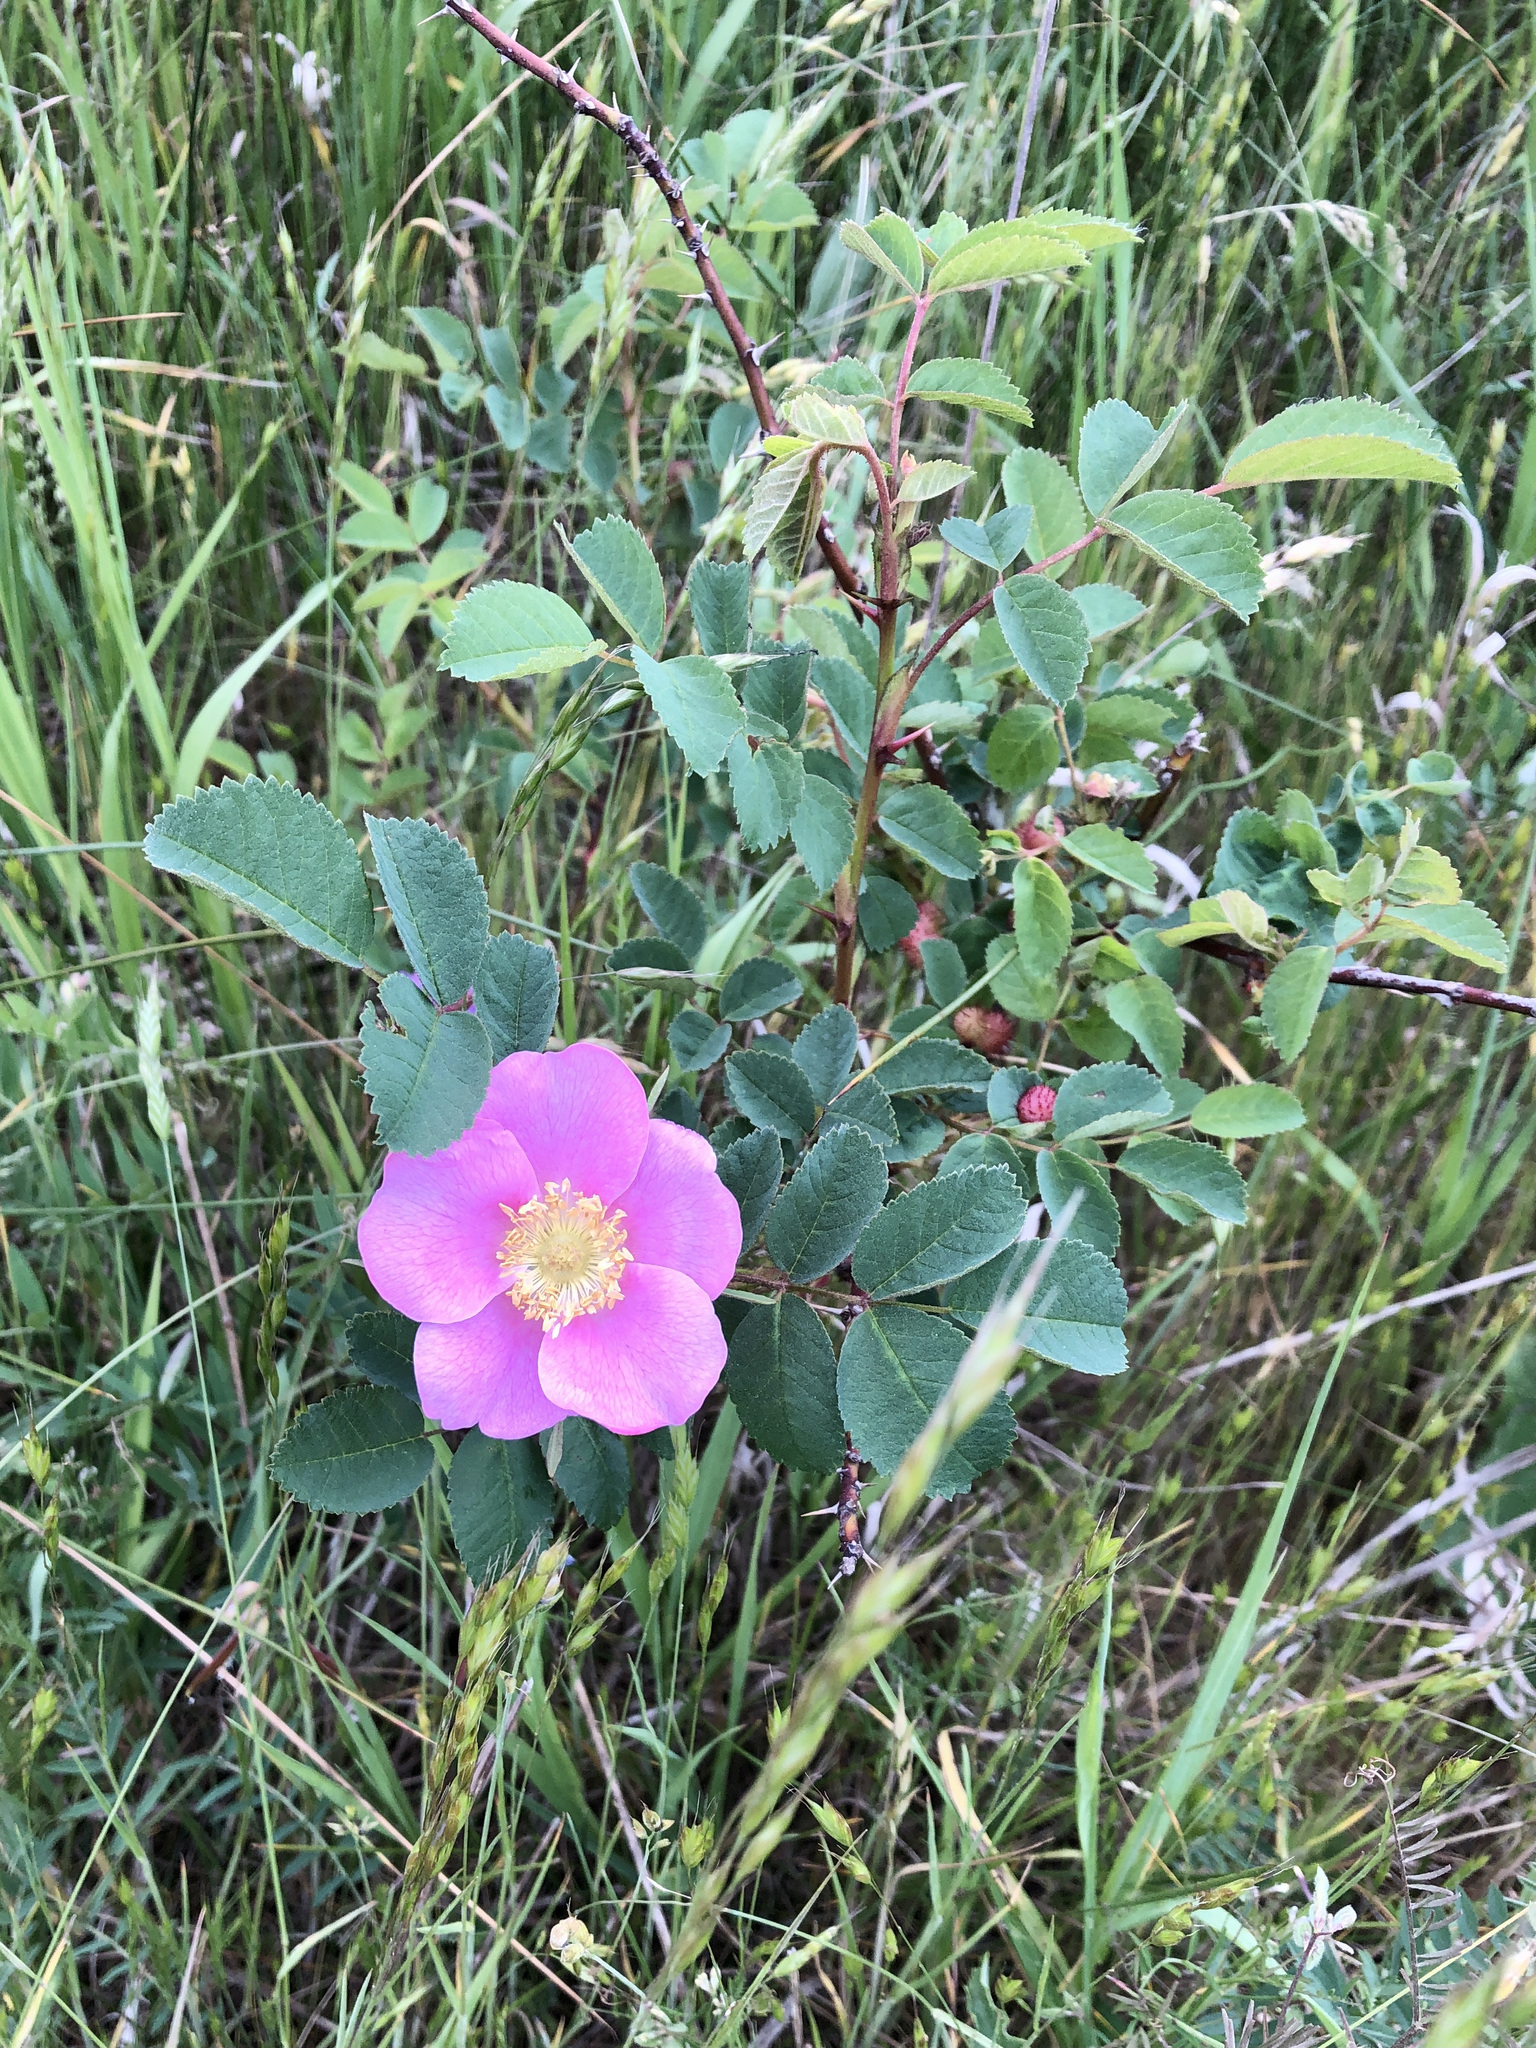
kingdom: Plantae
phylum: Tracheophyta
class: Magnoliopsida
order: Rosales
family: Rosaceae
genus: Rosa
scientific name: Rosa nutkana
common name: Nootka rose
